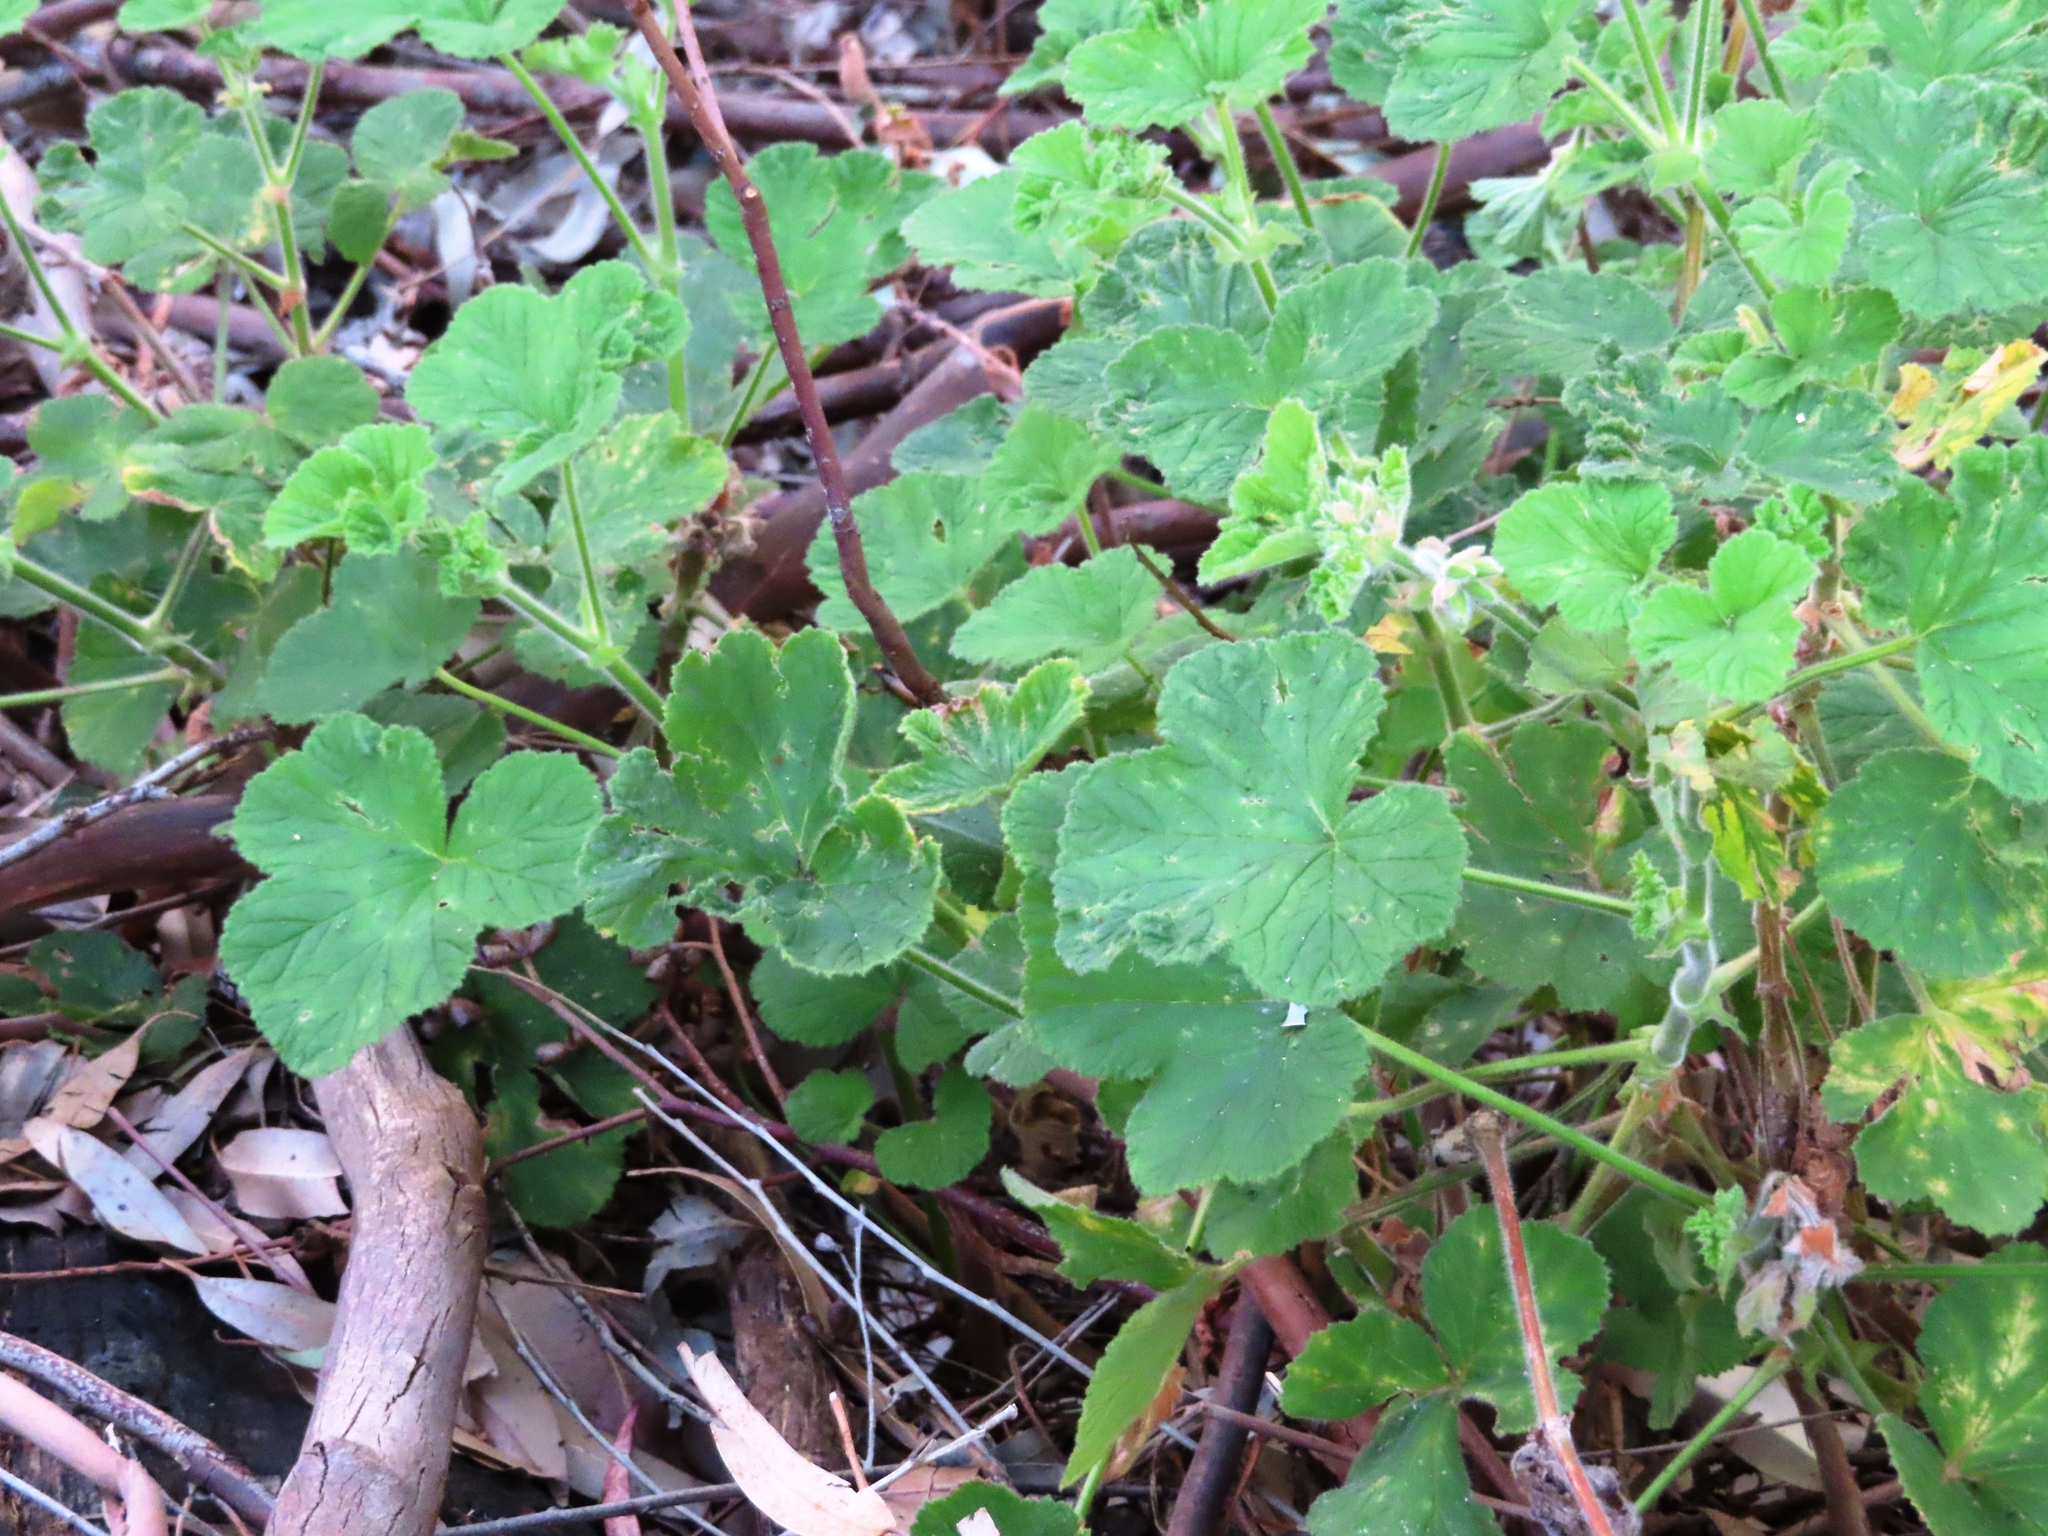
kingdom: Plantae
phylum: Tracheophyta
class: Magnoliopsida
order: Geraniales
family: Geraniaceae
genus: Pelargonium
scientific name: Pelargonium vitifolium
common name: Grapeleaf geranium
